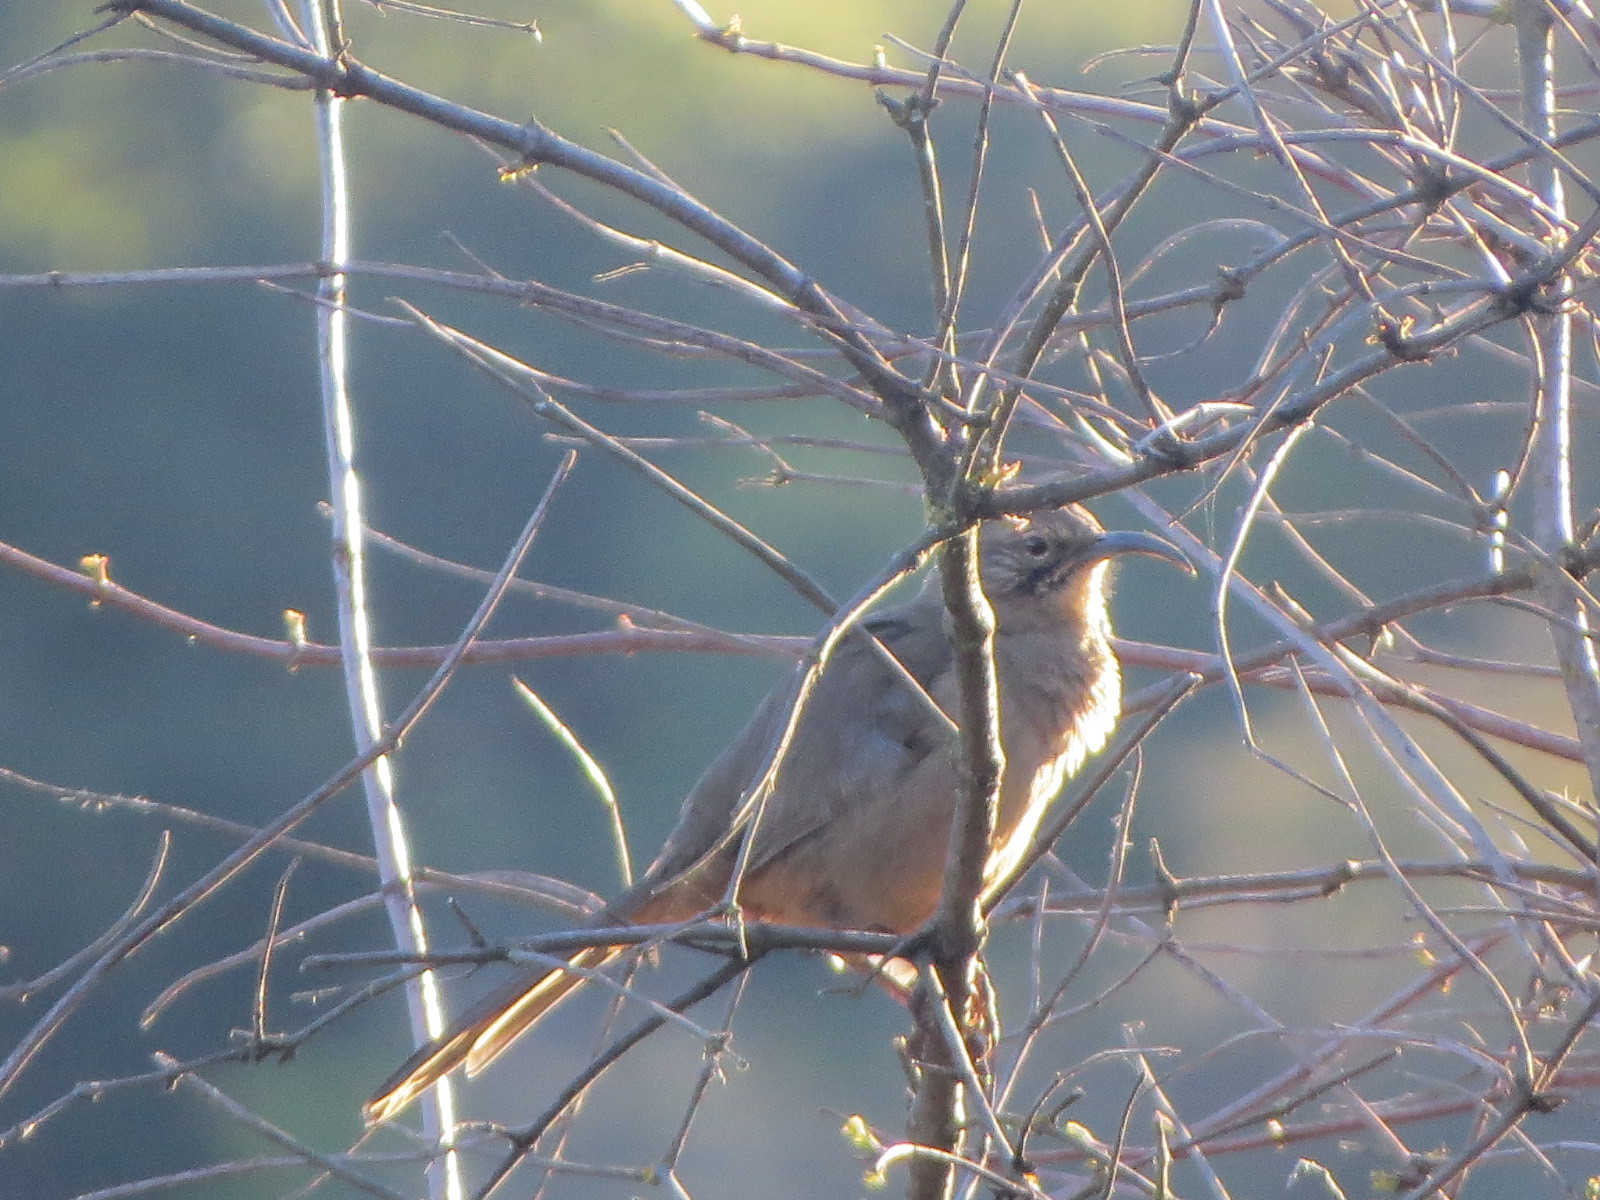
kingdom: Animalia
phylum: Chordata
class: Aves
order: Passeriformes
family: Mimidae
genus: Toxostoma
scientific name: Toxostoma redivivum
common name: California thrasher
